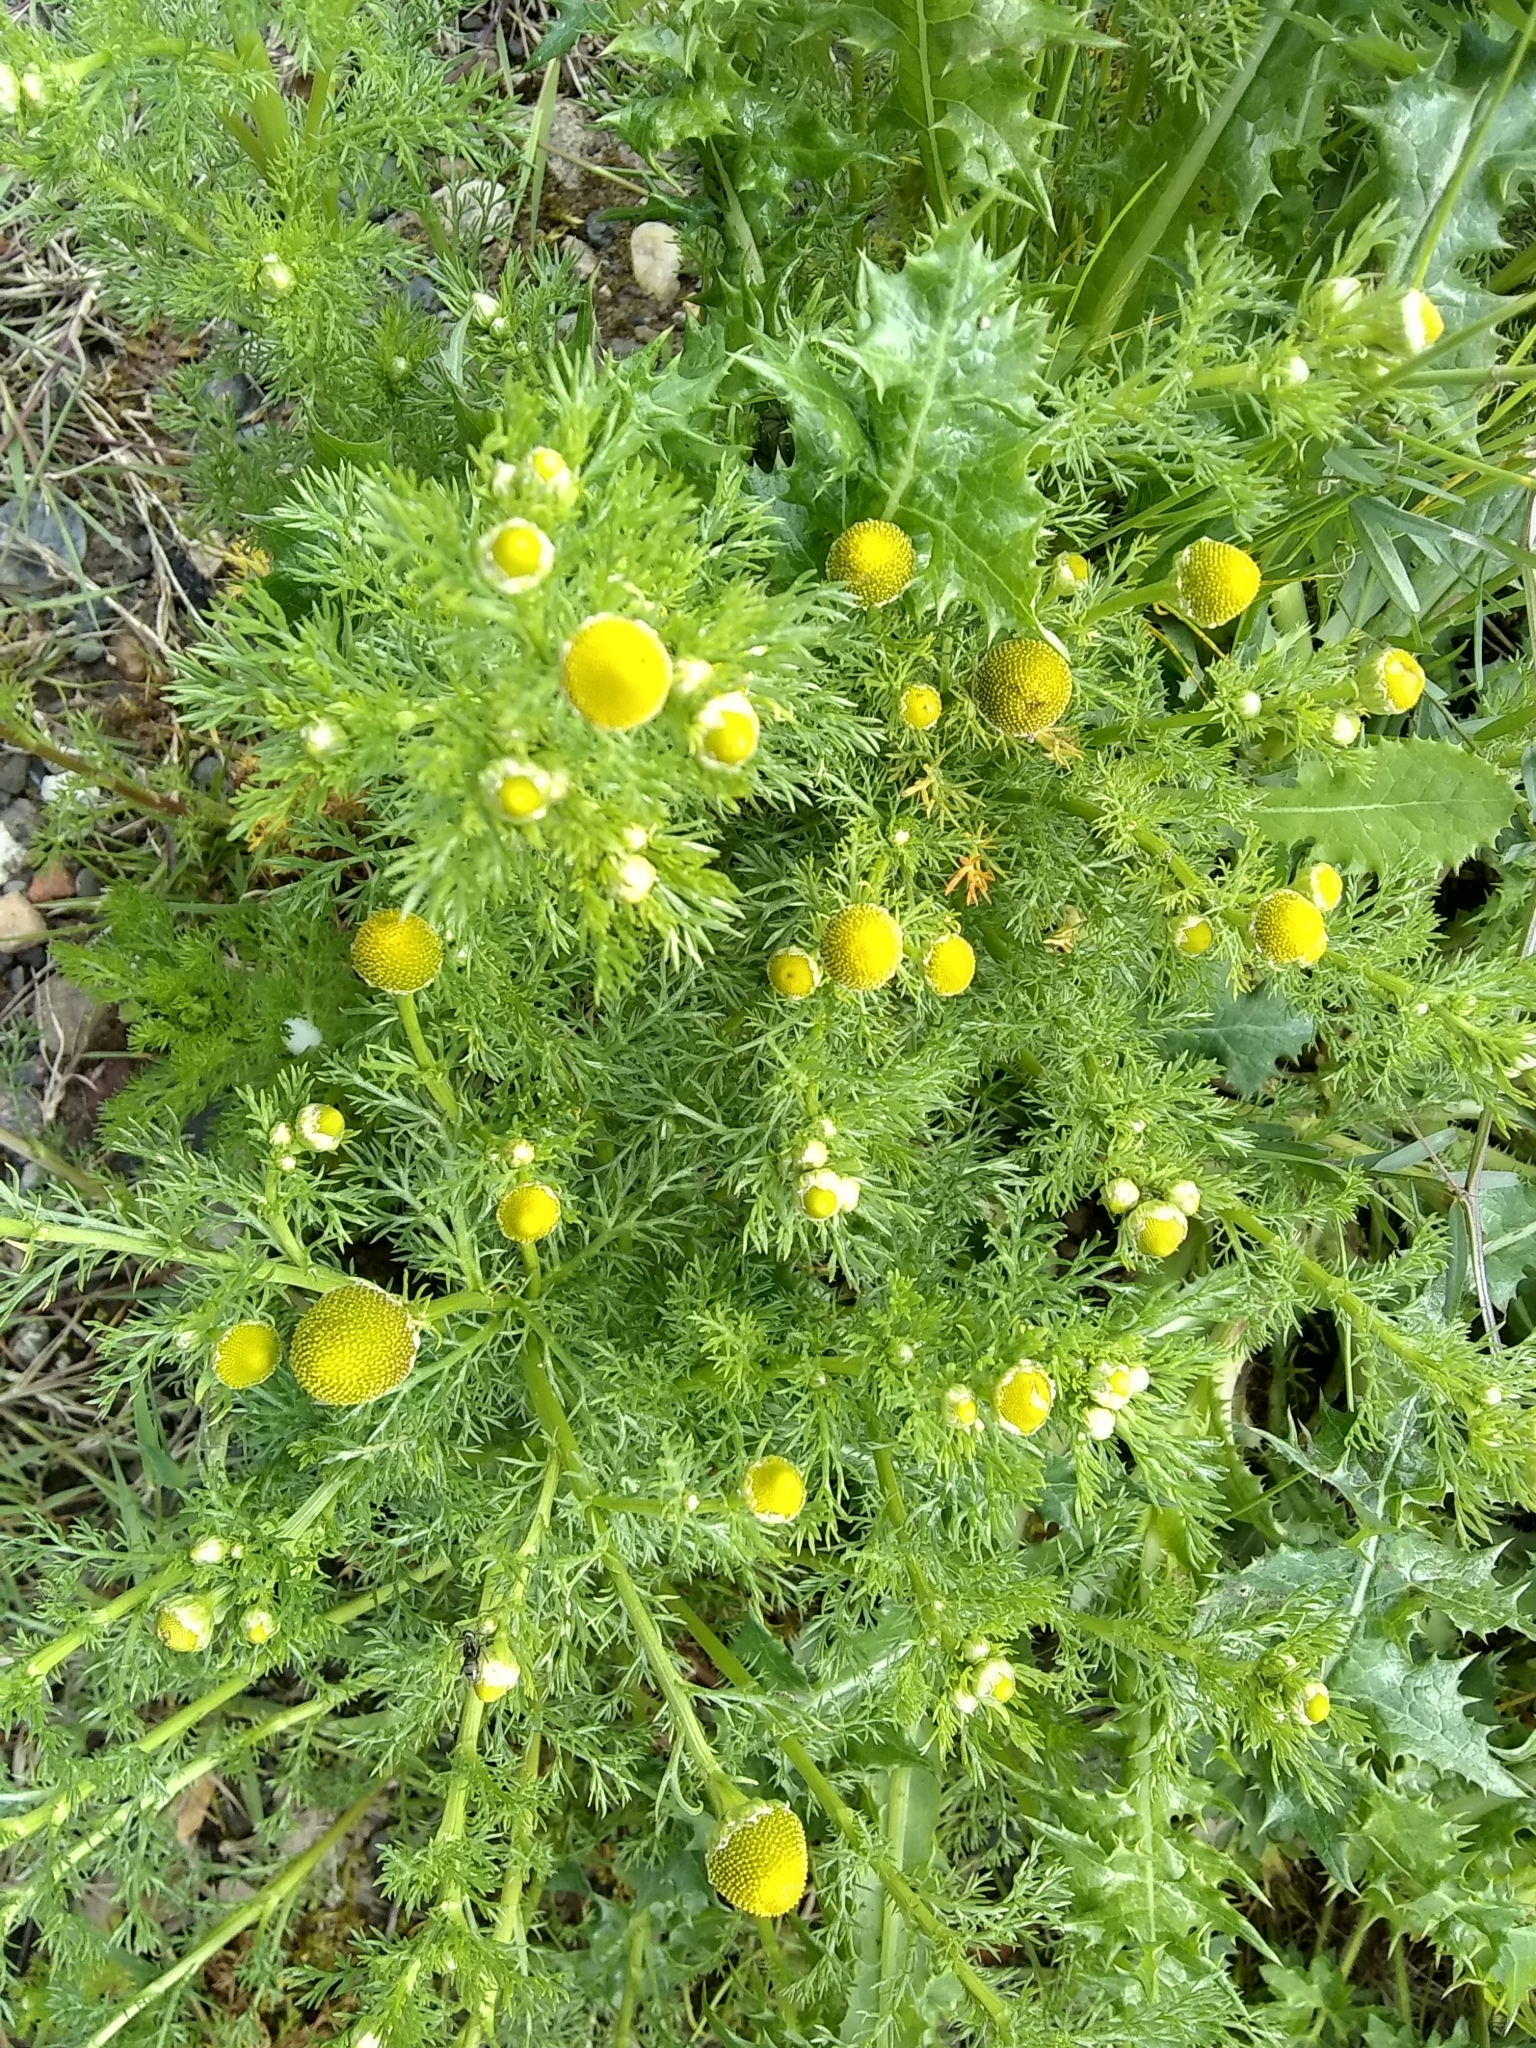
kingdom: Plantae
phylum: Tracheophyta
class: Magnoliopsida
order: Asterales
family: Asteraceae
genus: Matricaria
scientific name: Matricaria discoidea
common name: Disc mayweed
